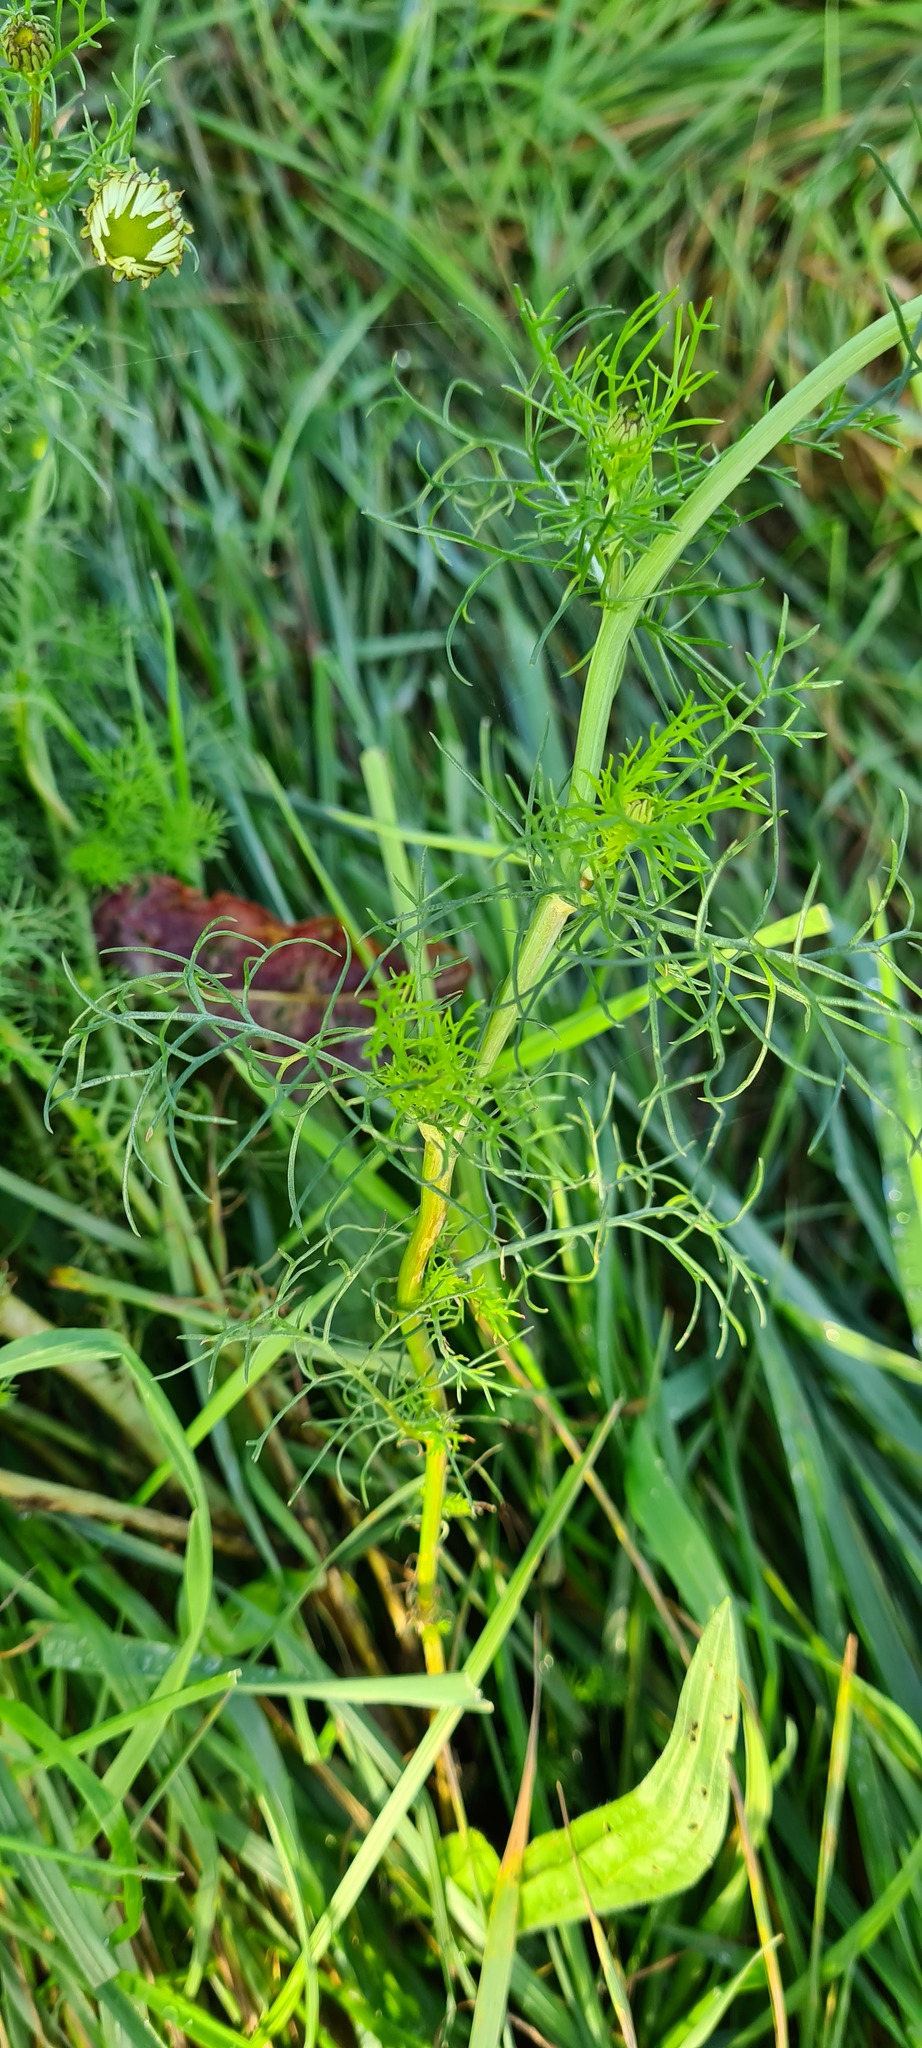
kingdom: Plantae
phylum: Tracheophyta
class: Magnoliopsida
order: Asterales
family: Asteraceae
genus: Tripleurospermum
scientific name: Tripleurospermum inodorum
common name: Scentless mayweed
